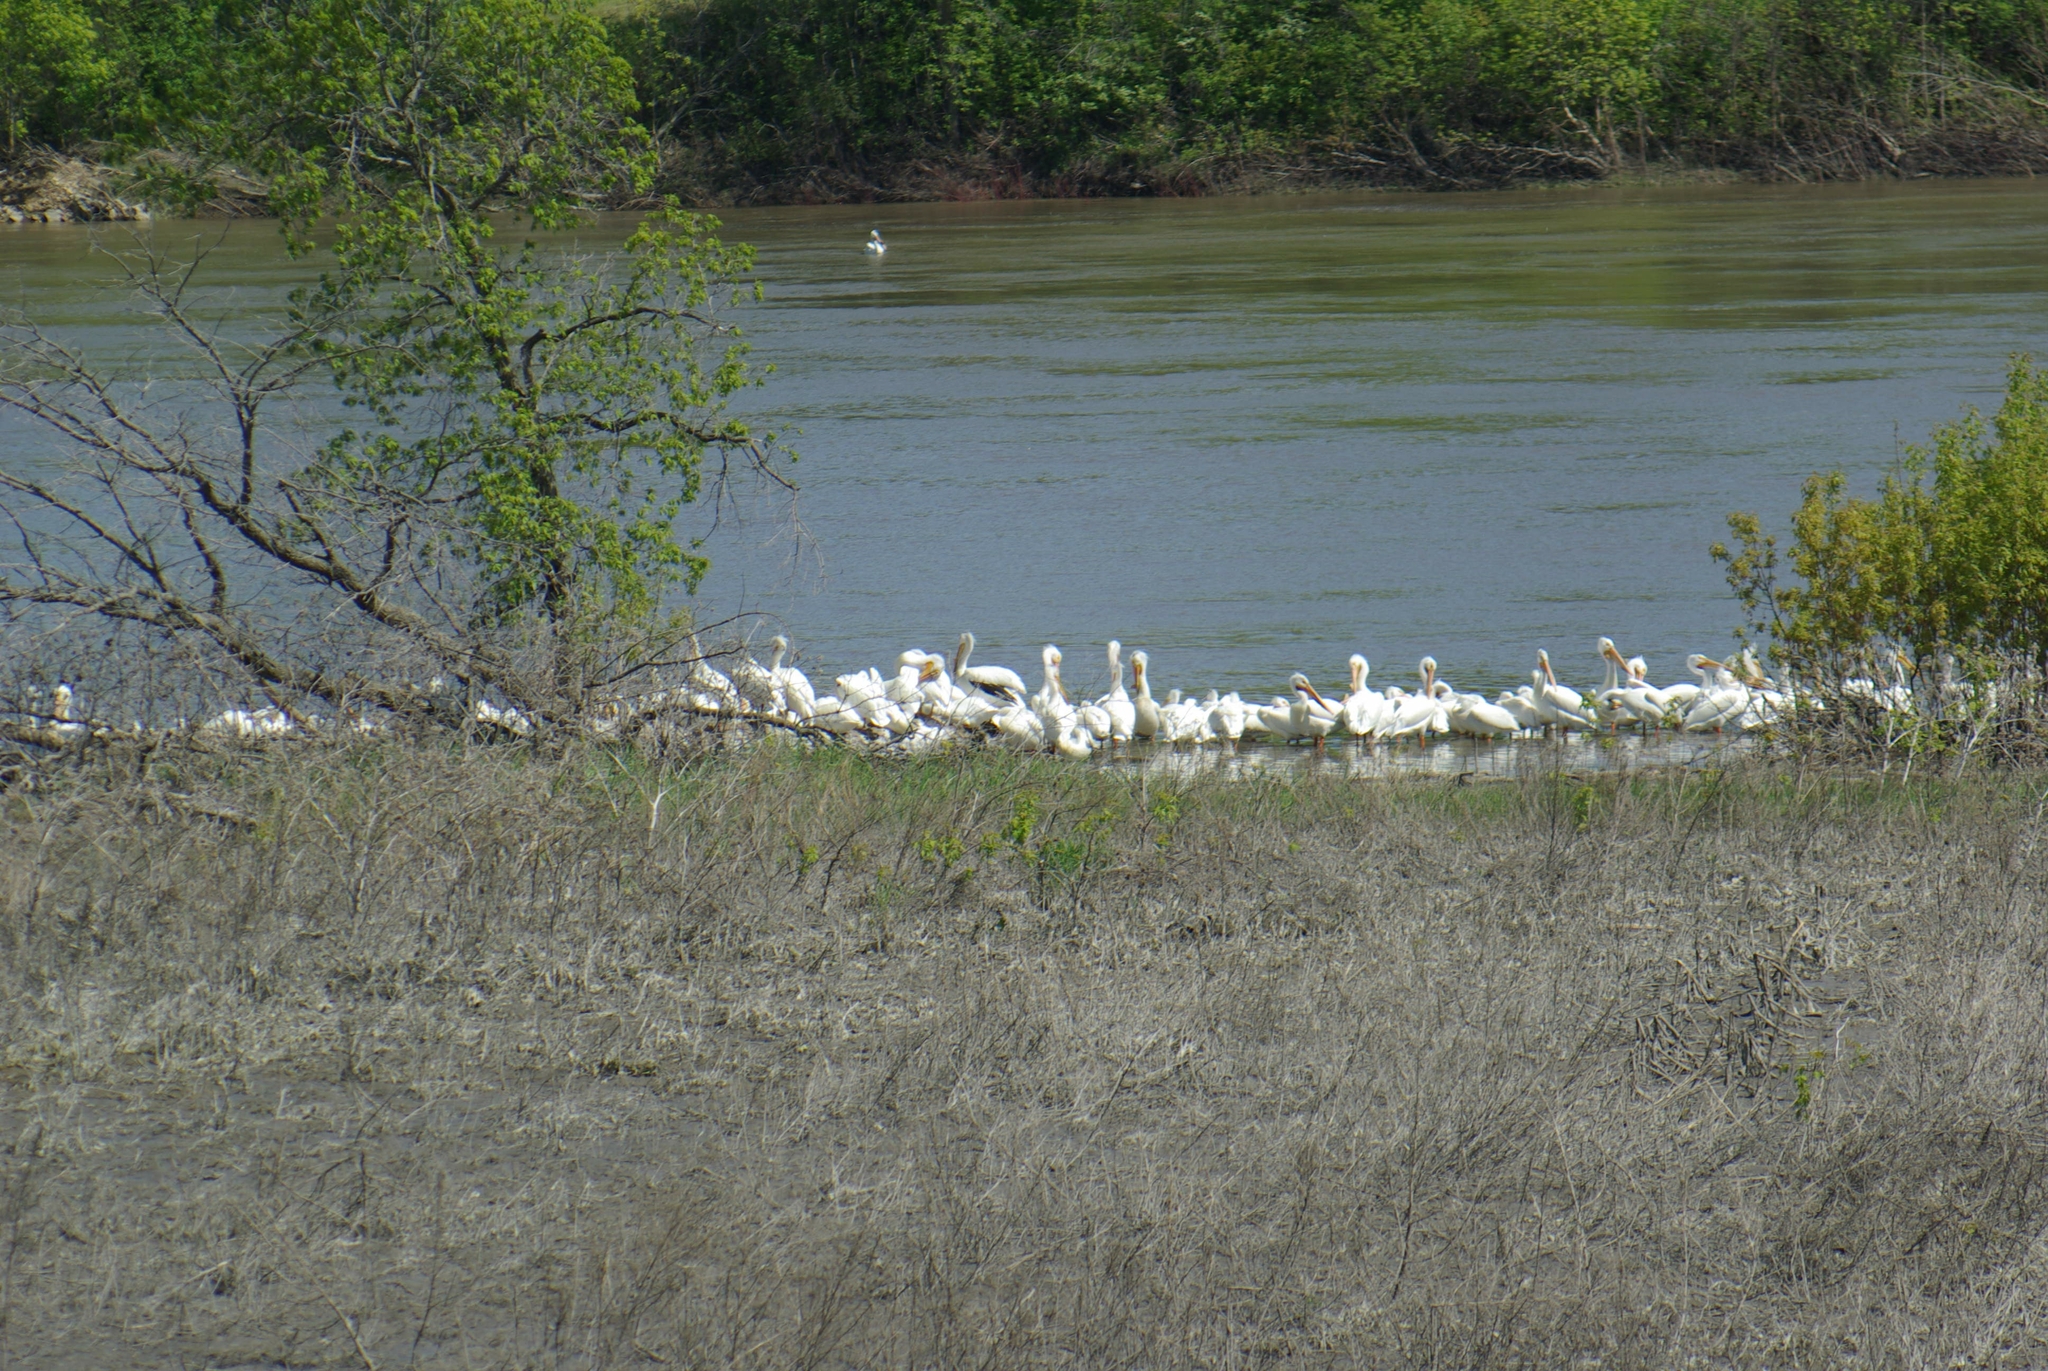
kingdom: Animalia
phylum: Chordata
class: Aves
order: Pelecaniformes
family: Pelecanidae
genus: Pelecanus
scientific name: Pelecanus erythrorhynchos
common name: American white pelican
